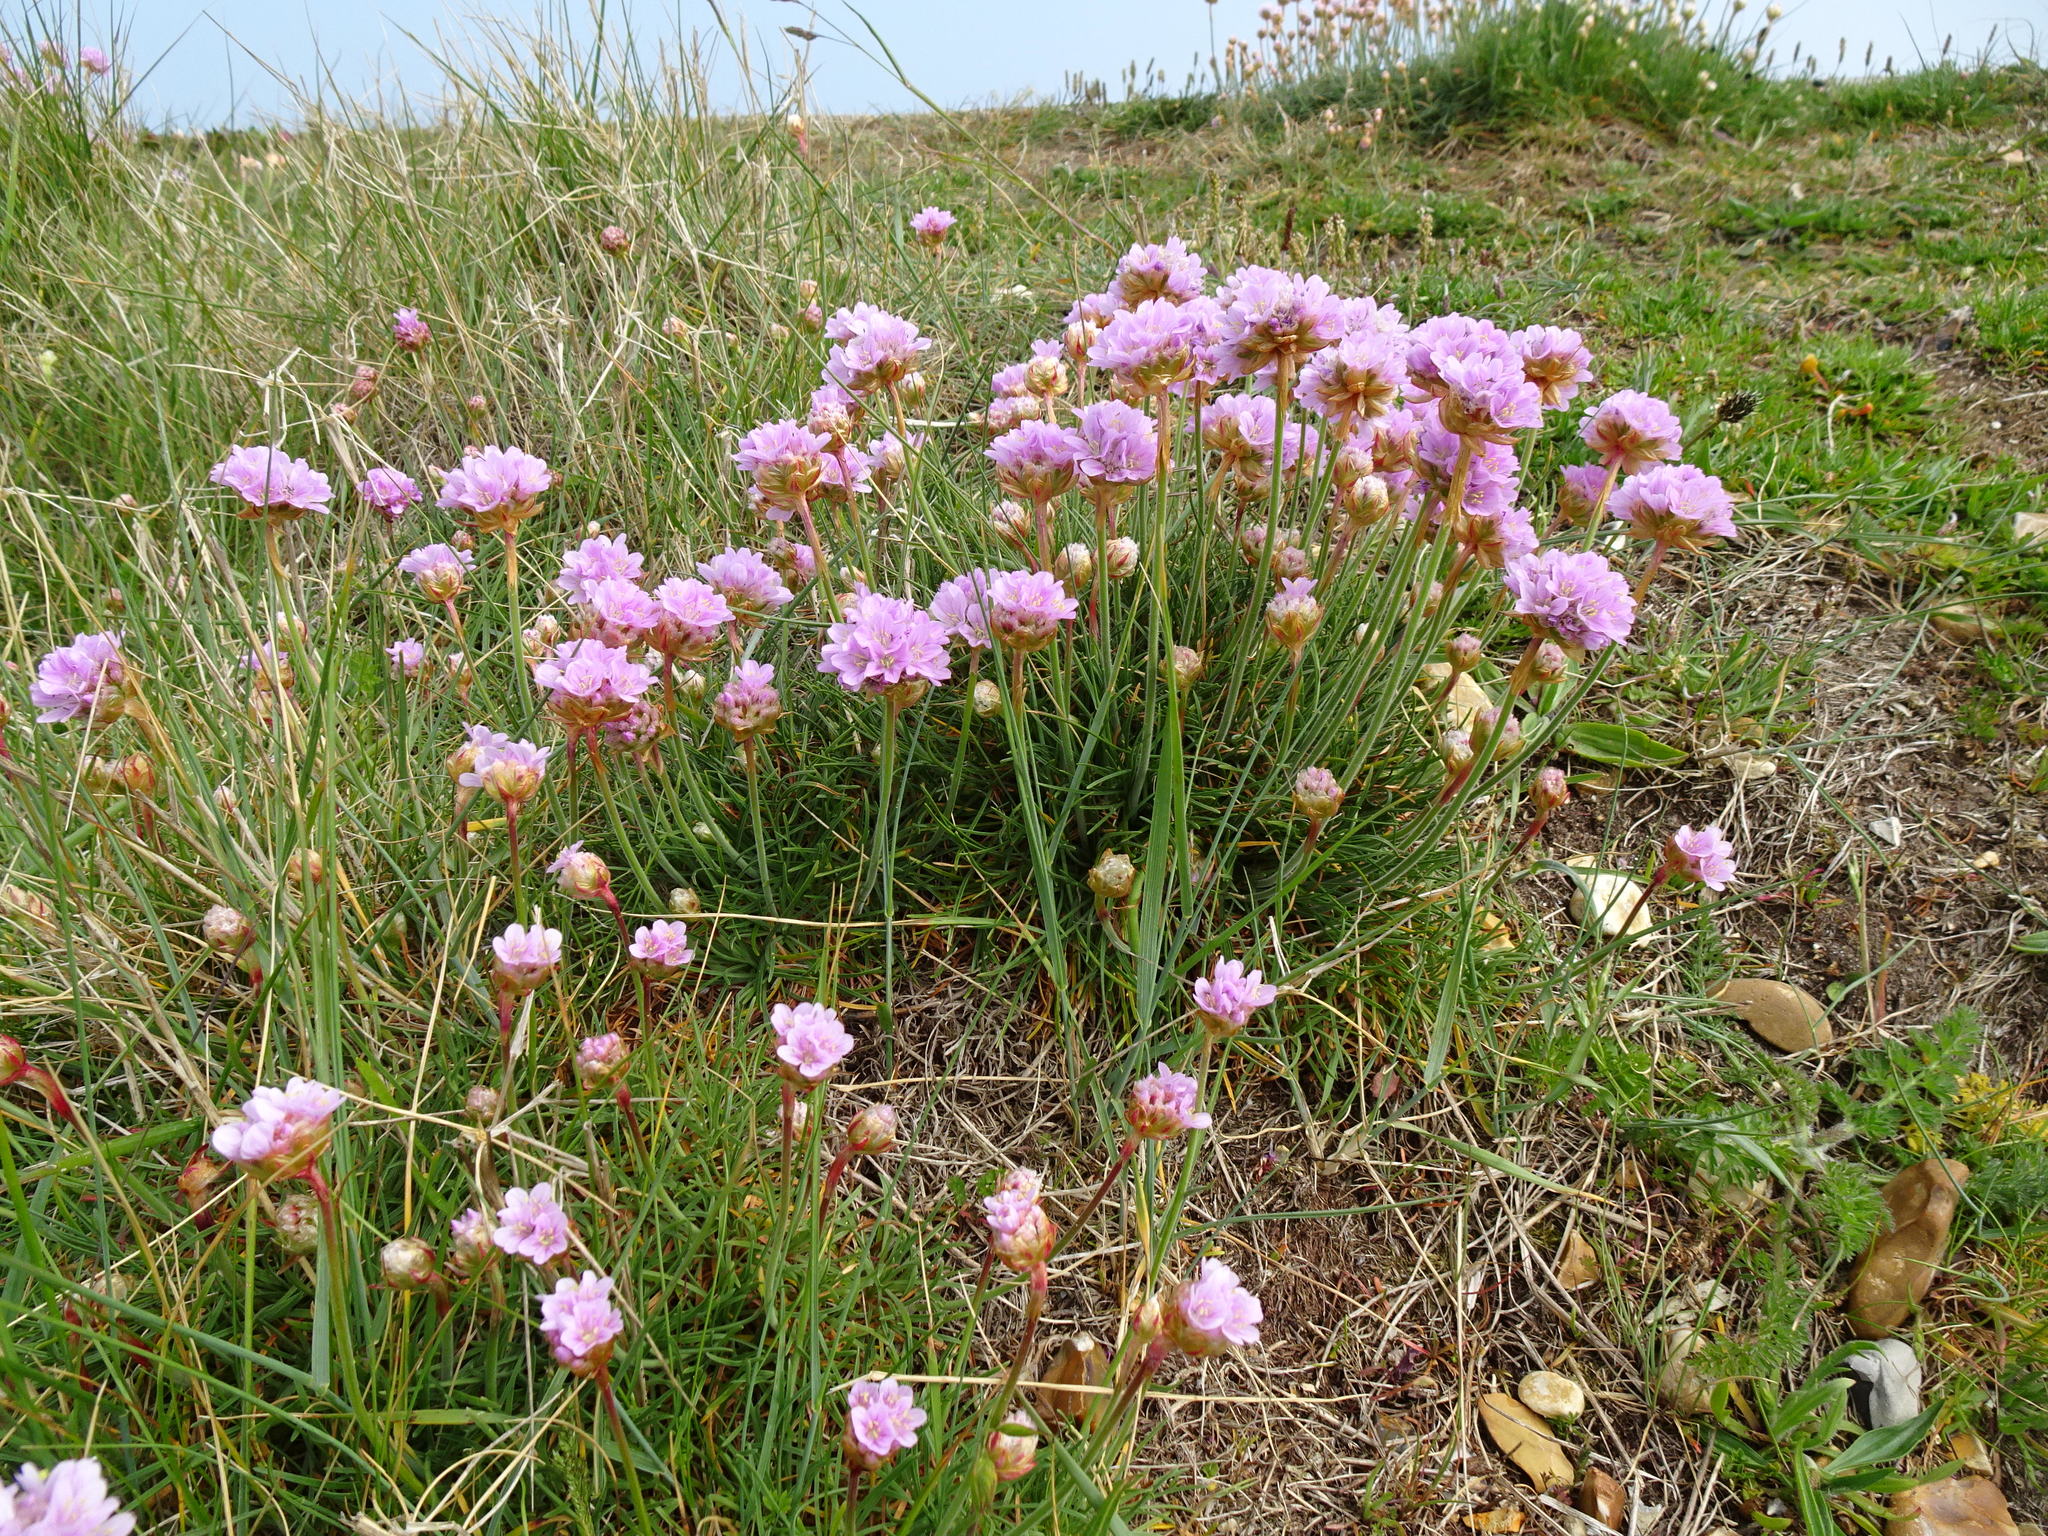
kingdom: Plantae
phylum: Tracheophyta
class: Magnoliopsida
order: Caryophyllales
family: Plumbaginaceae
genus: Armeria
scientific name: Armeria maritima
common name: Thrift
